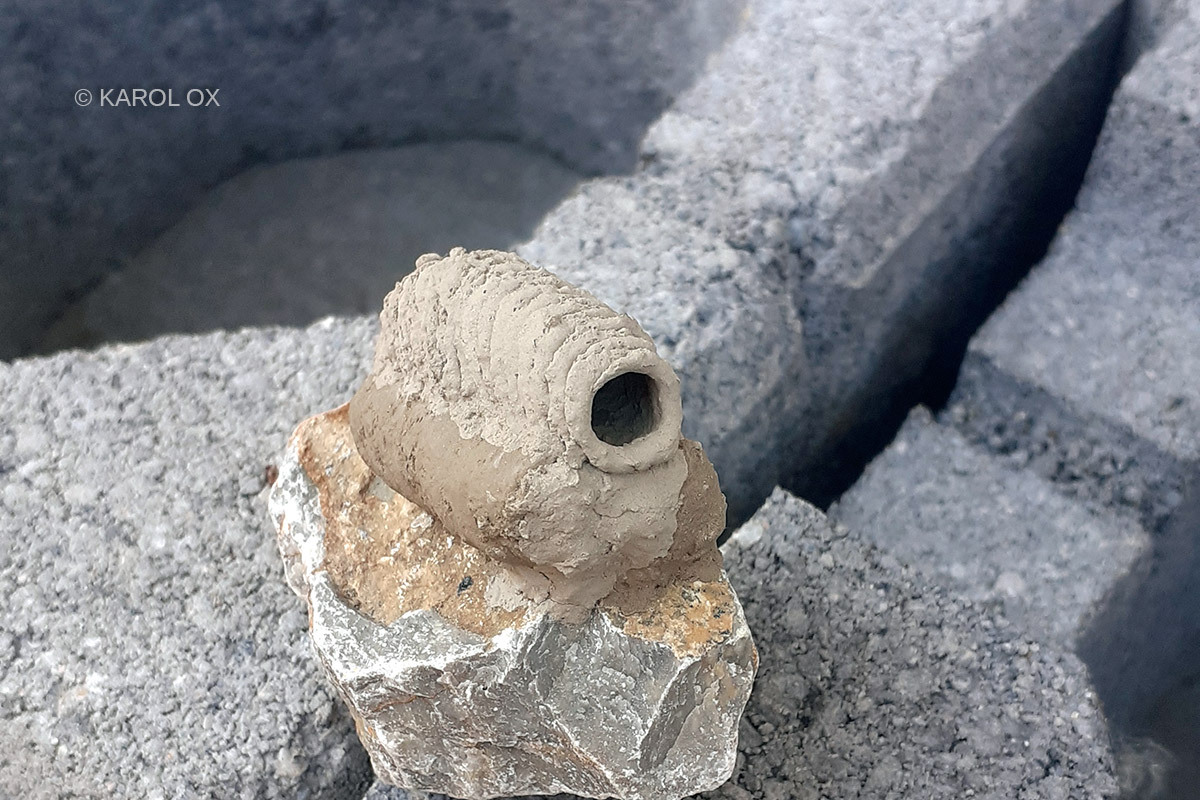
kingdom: Animalia
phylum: Arthropoda
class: Insecta
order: Hymenoptera
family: Sphecidae
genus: Sceliphron
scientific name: Sceliphron
